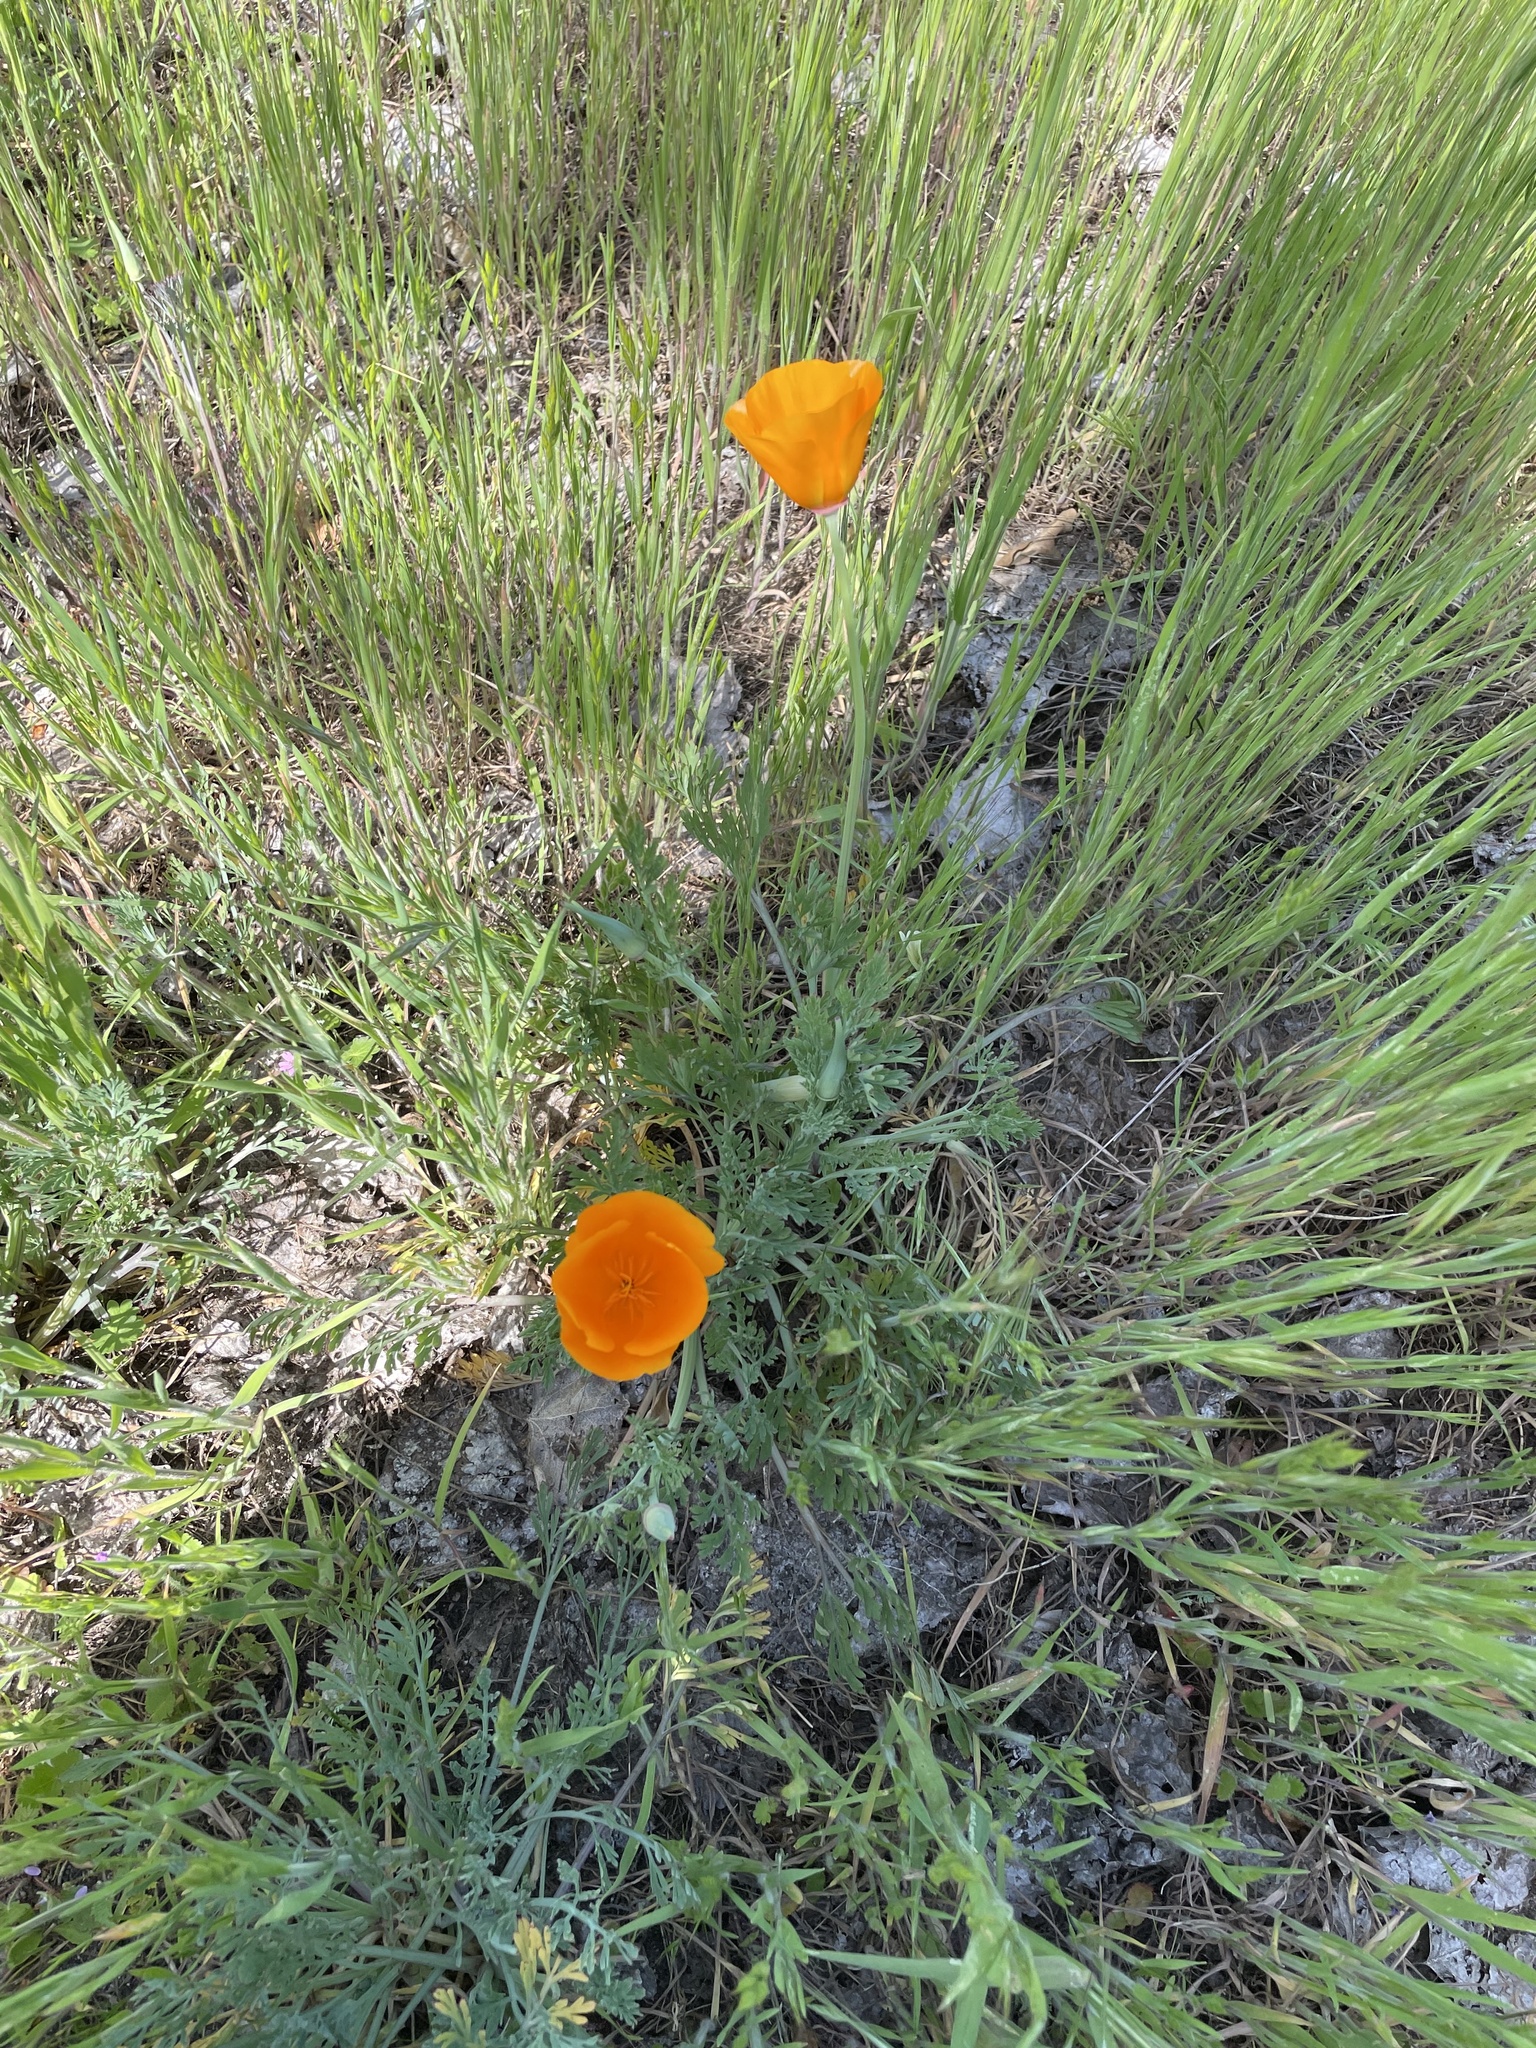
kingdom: Plantae
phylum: Tracheophyta
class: Magnoliopsida
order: Ranunculales
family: Papaveraceae
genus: Eschscholzia
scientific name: Eschscholzia californica
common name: California poppy
